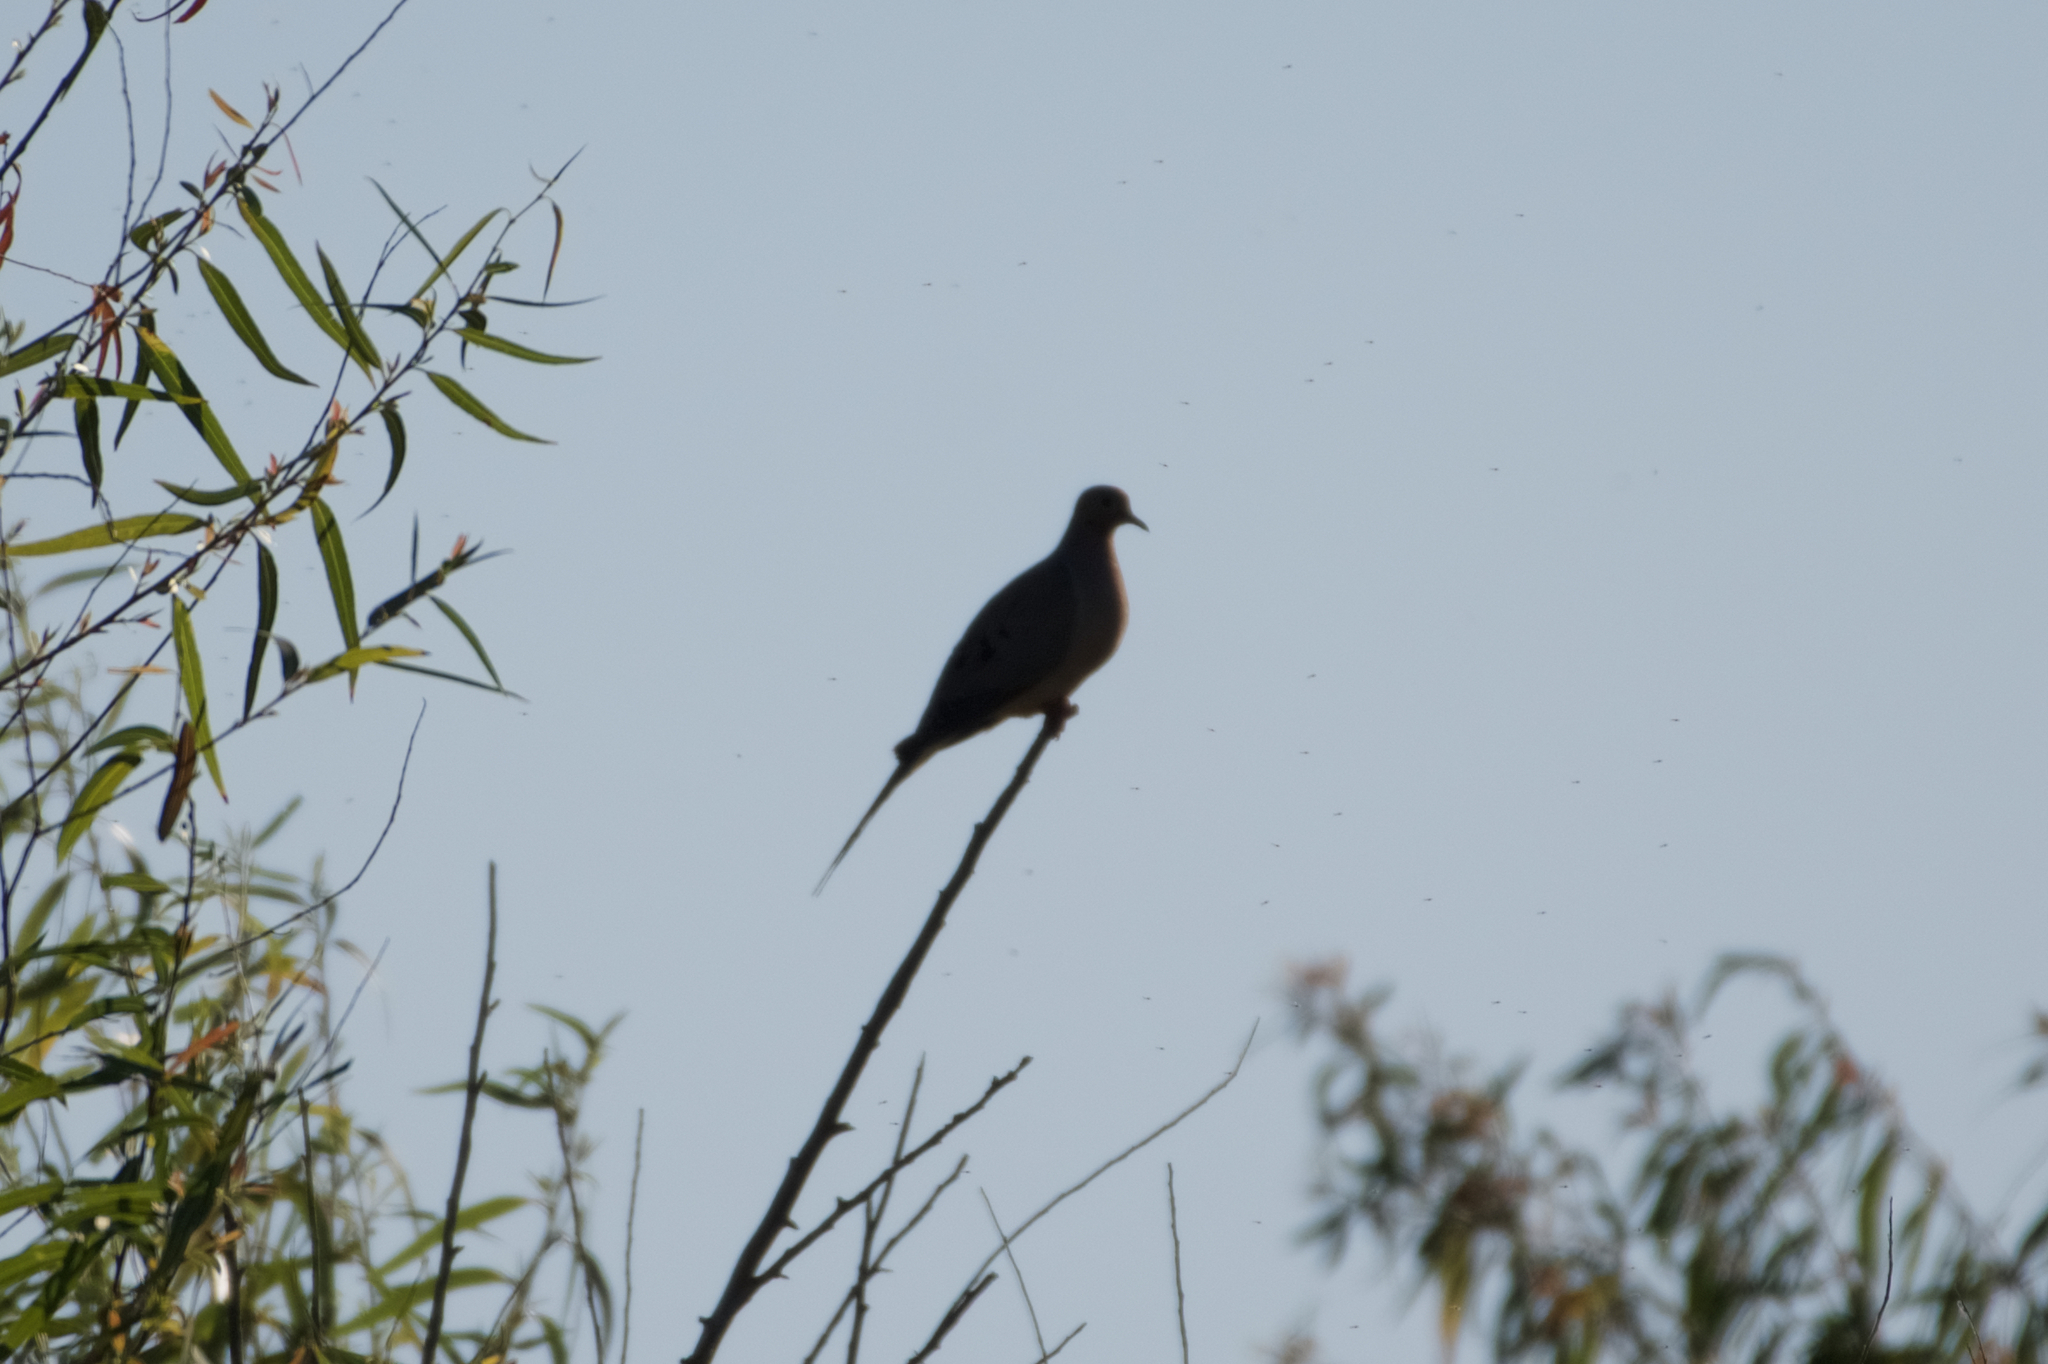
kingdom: Animalia
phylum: Chordata
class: Aves
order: Columbiformes
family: Columbidae
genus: Zenaida
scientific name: Zenaida macroura
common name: Mourning dove
